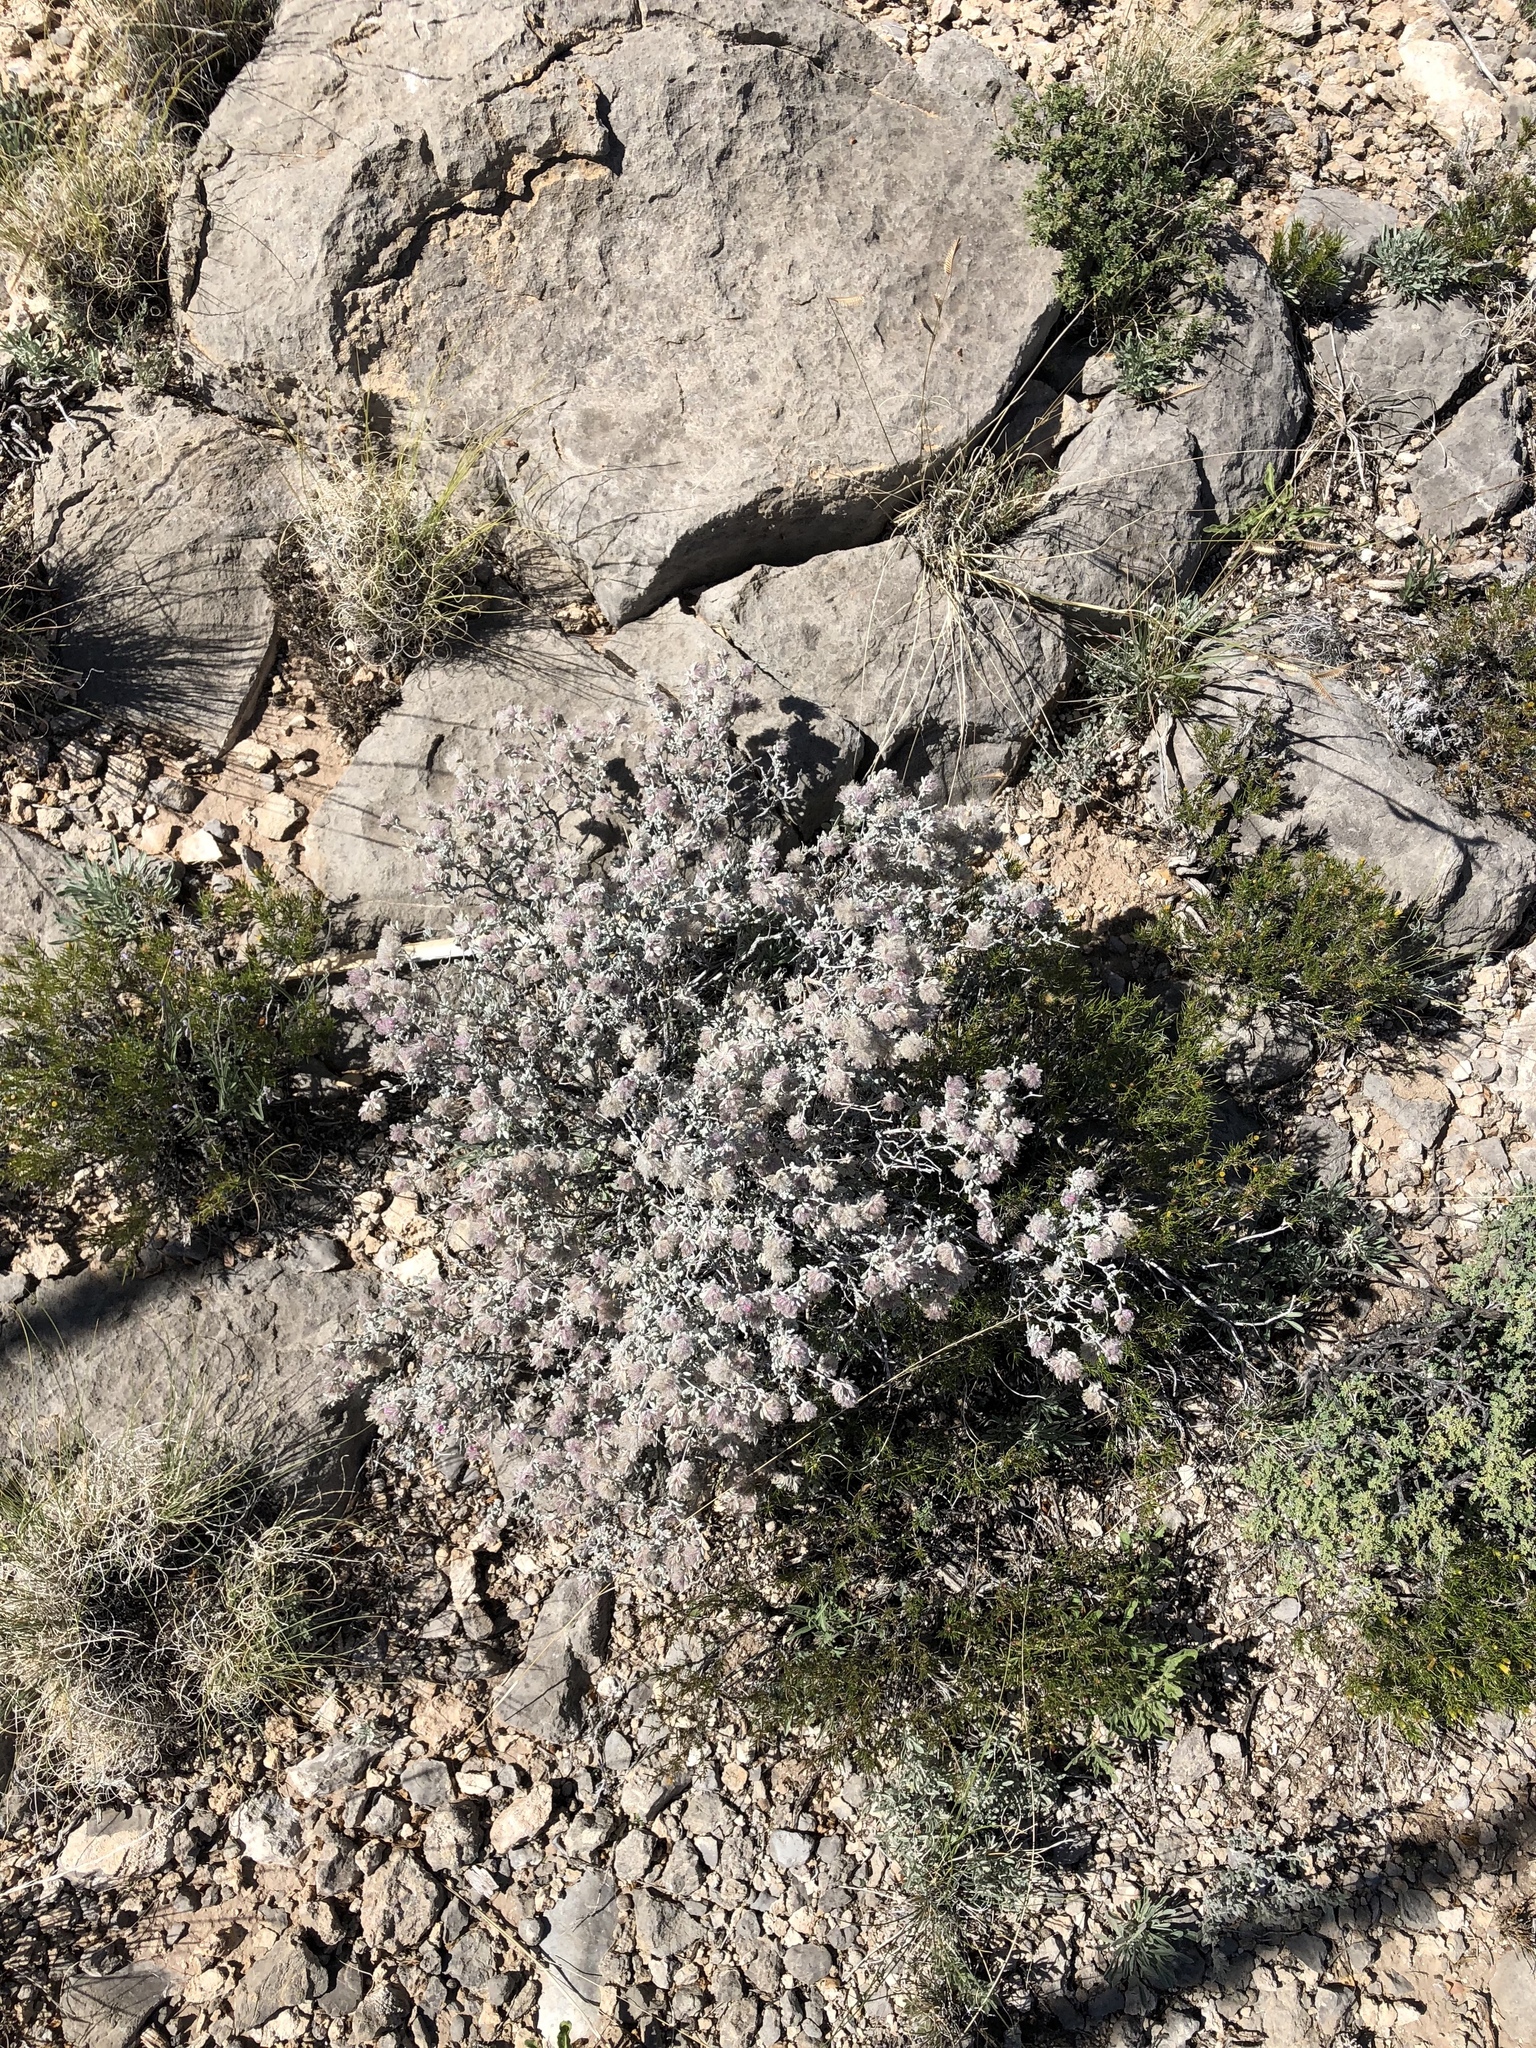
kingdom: Plantae
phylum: Tracheophyta
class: Magnoliopsida
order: Boraginales
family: Ehretiaceae
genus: Tiquilia
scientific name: Tiquilia greggii
